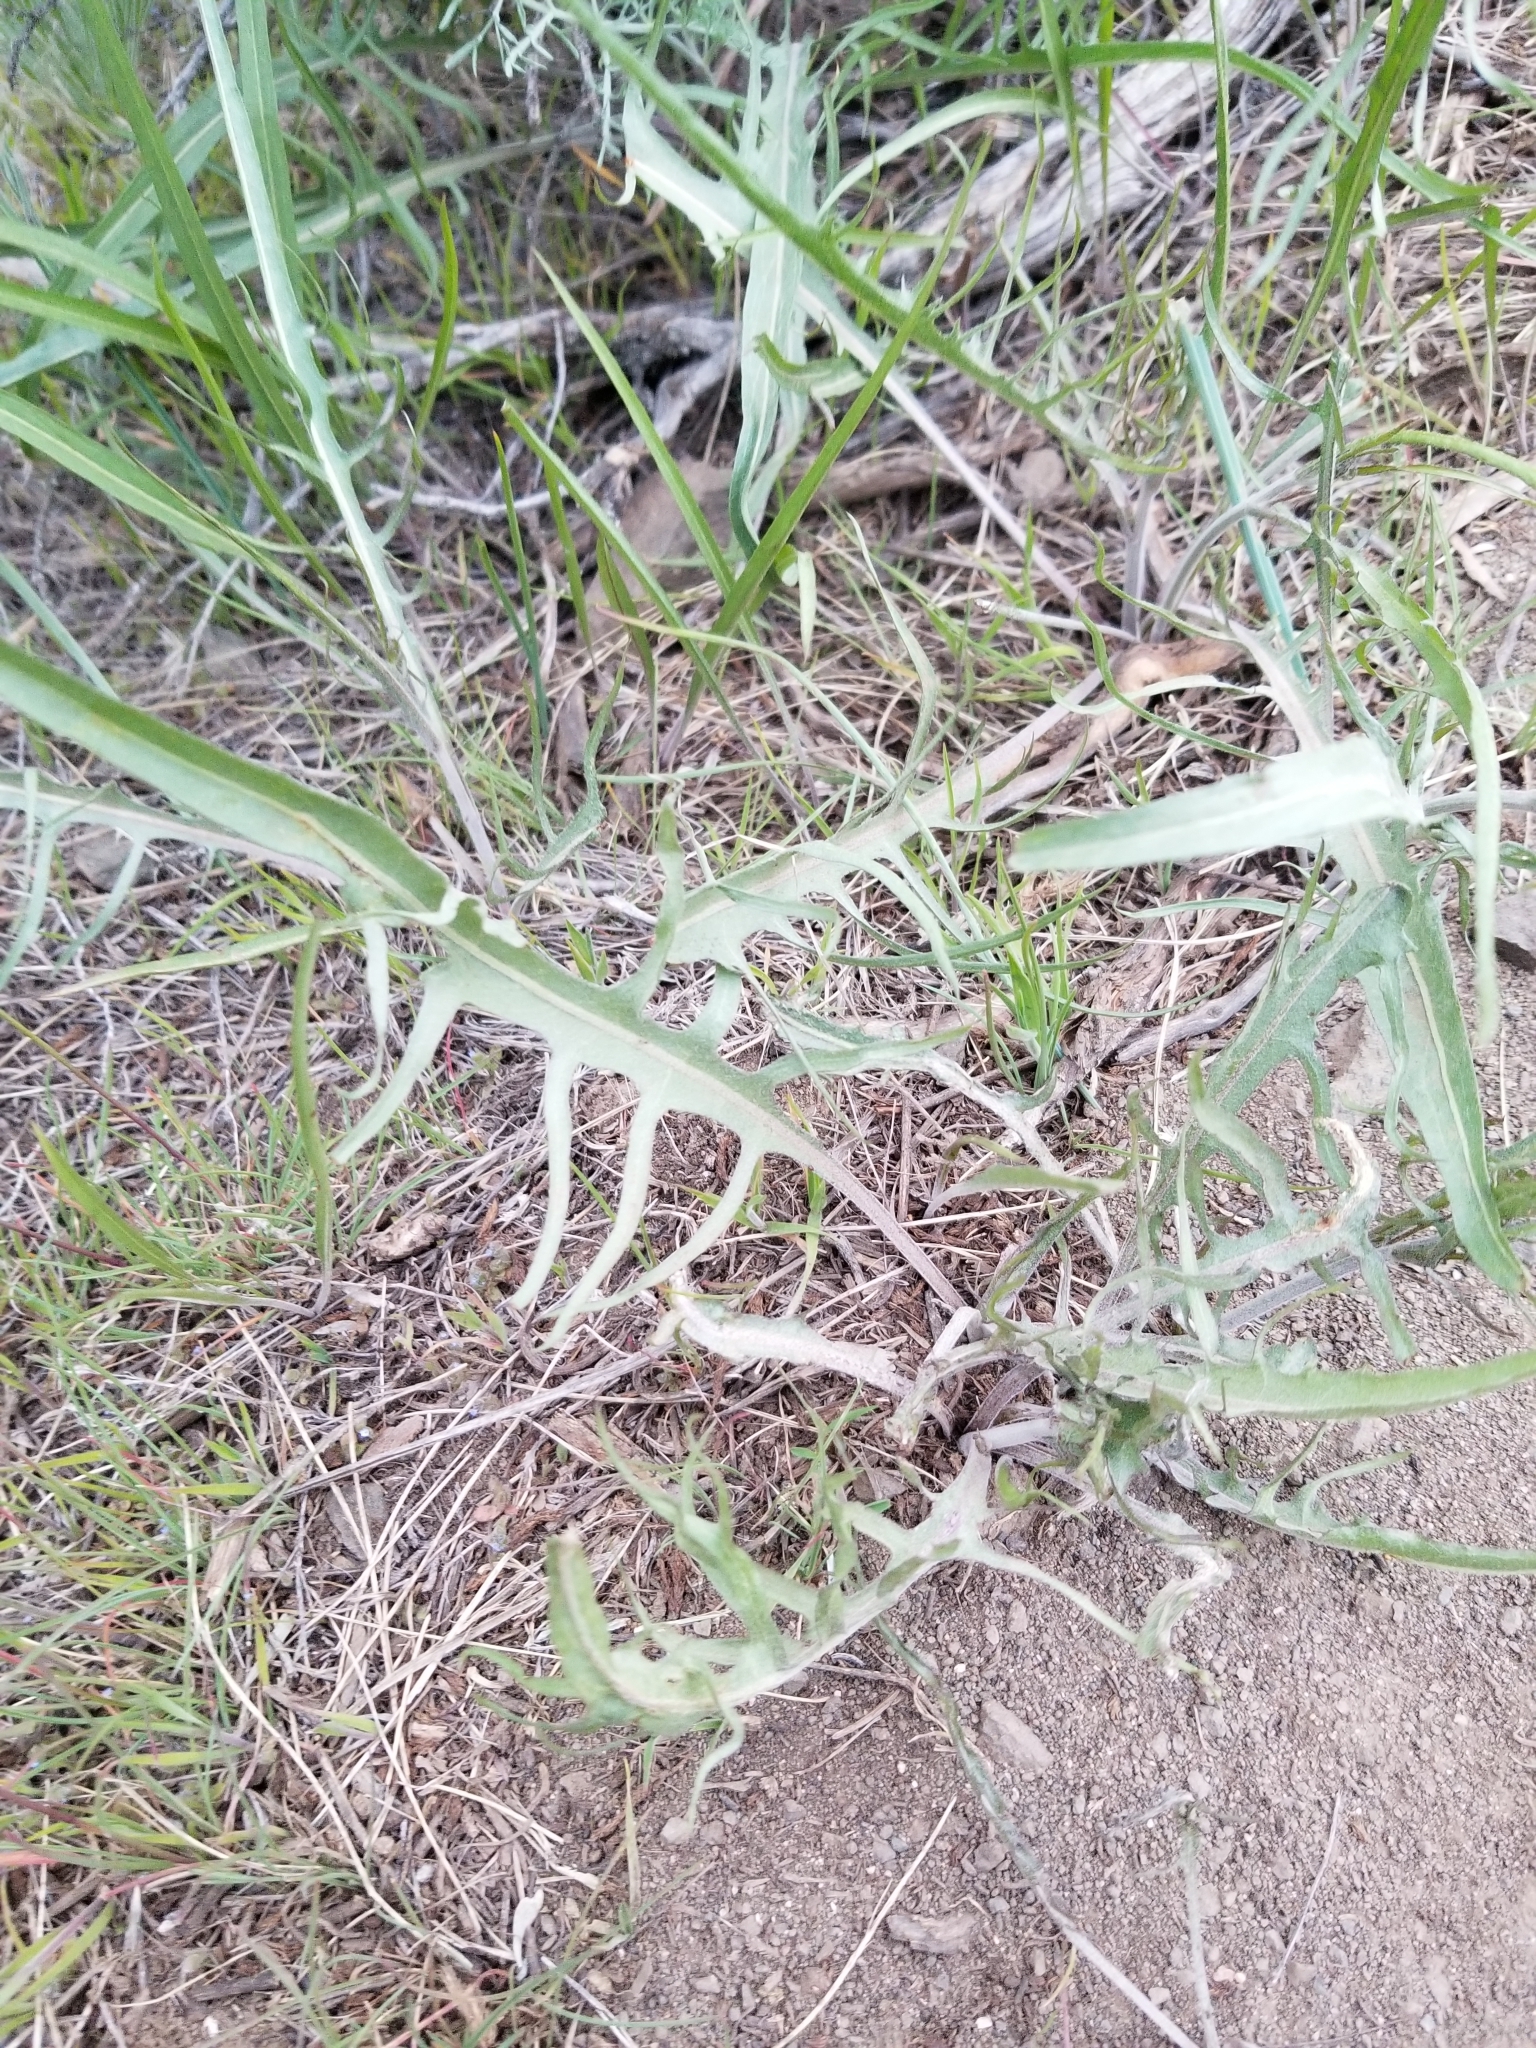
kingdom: Plantae
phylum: Tracheophyta
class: Magnoliopsida
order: Asterales
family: Asteraceae
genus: Crepis
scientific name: Crepis atribarba
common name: Dark hawk's-beard
